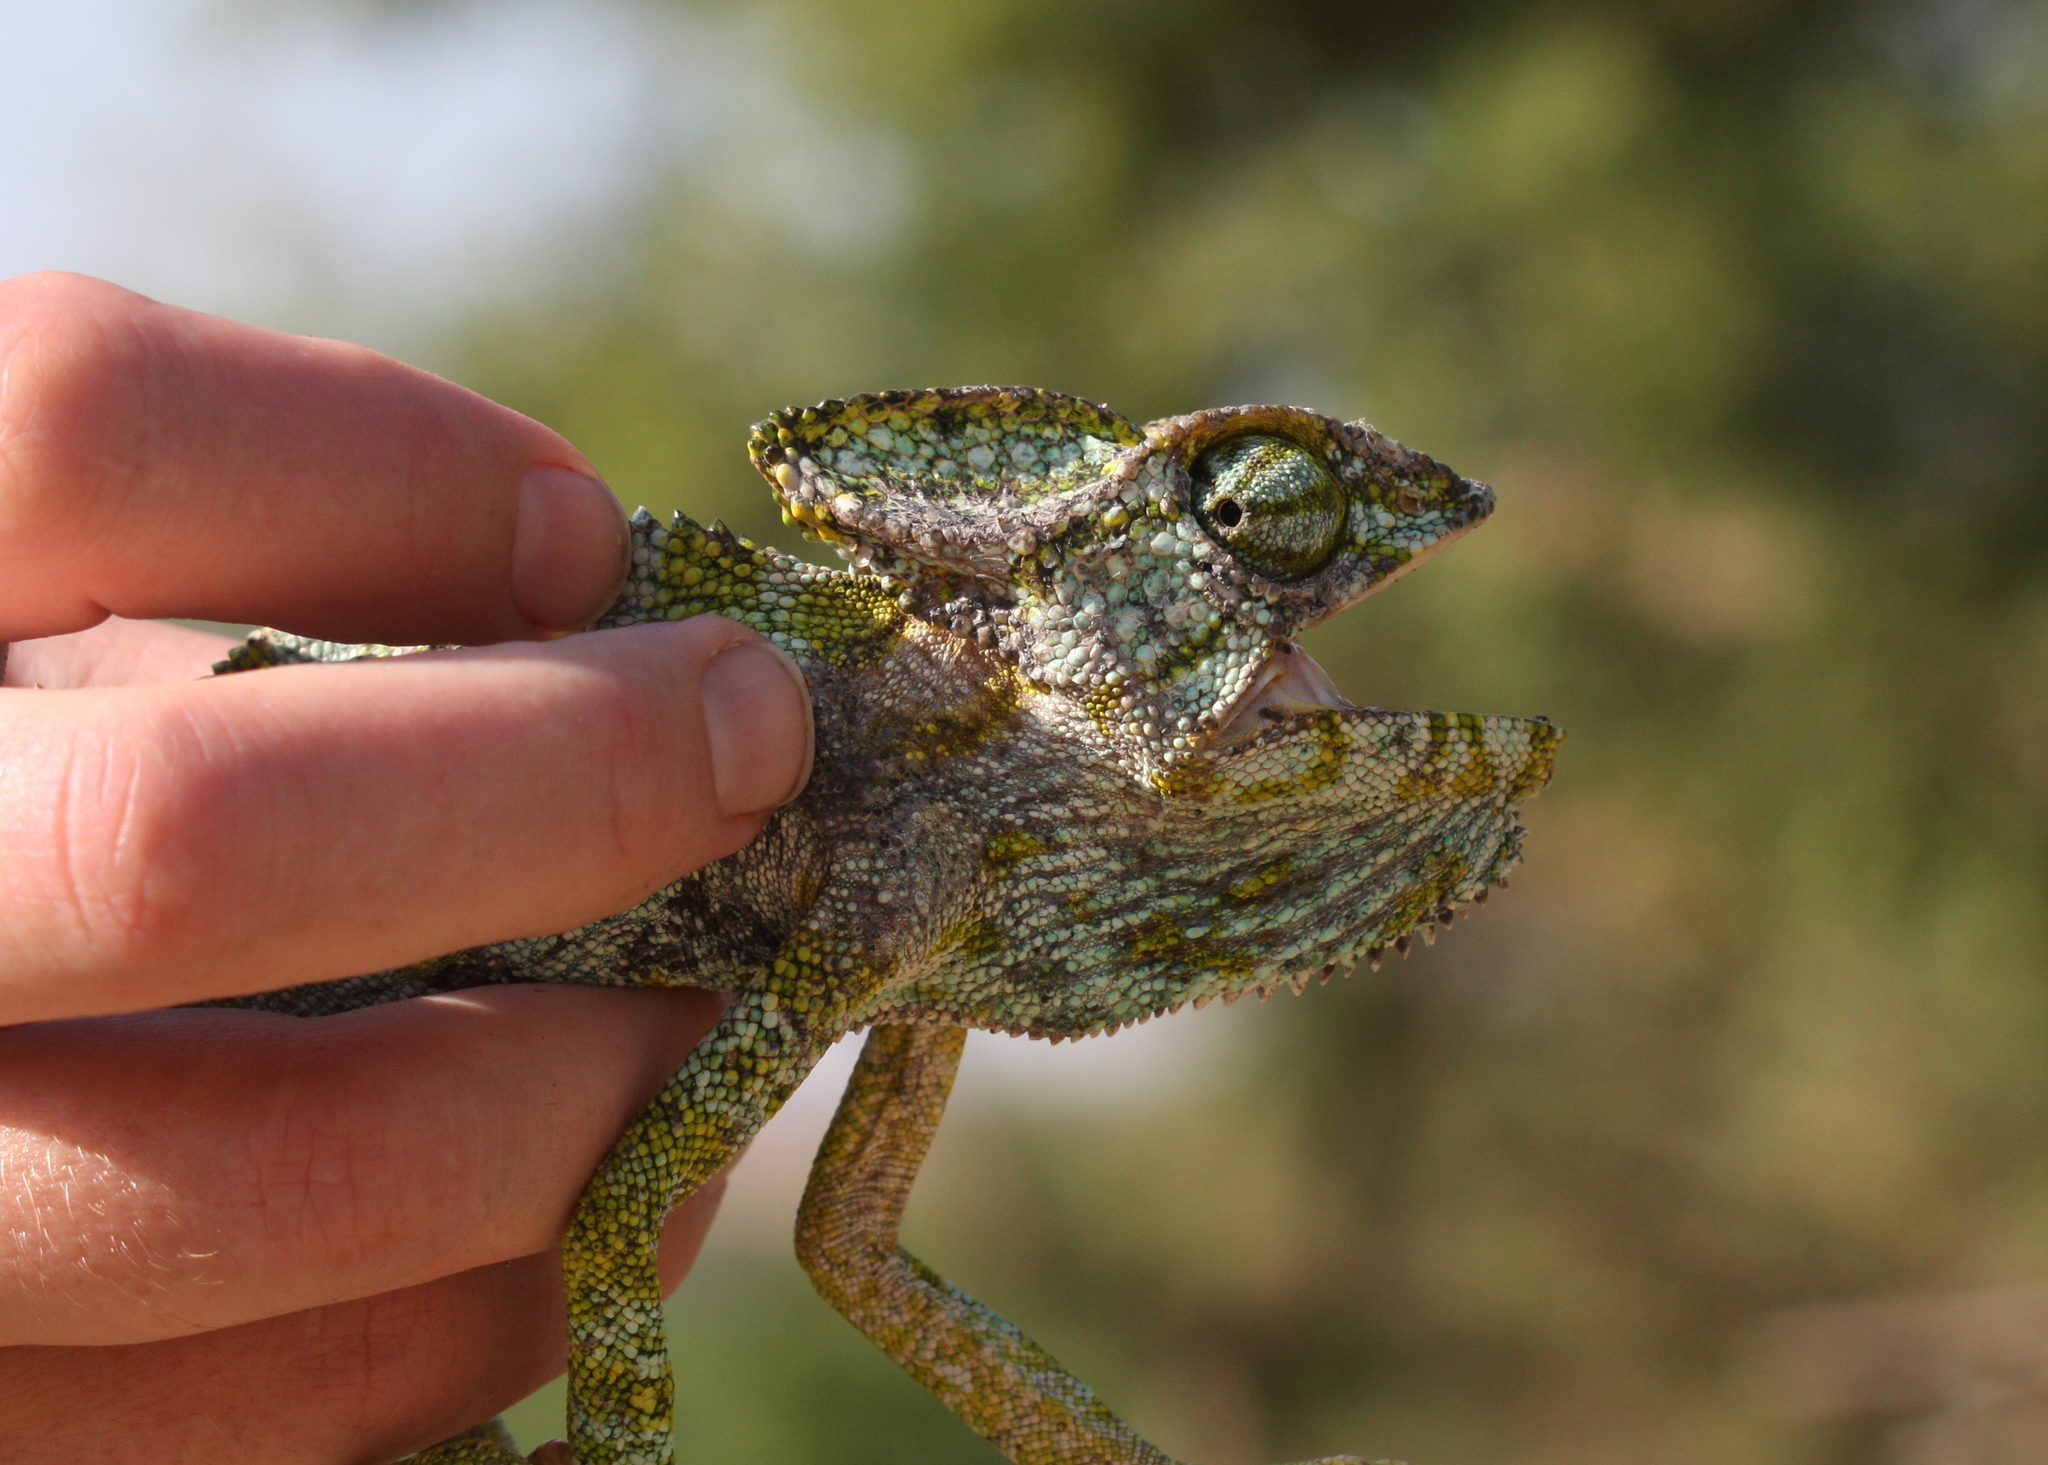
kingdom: Animalia
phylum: Chordata
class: Squamata
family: Chamaeleonidae
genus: Chamaeleo
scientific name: Chamaeleo arabicus
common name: Arabian chameleon
